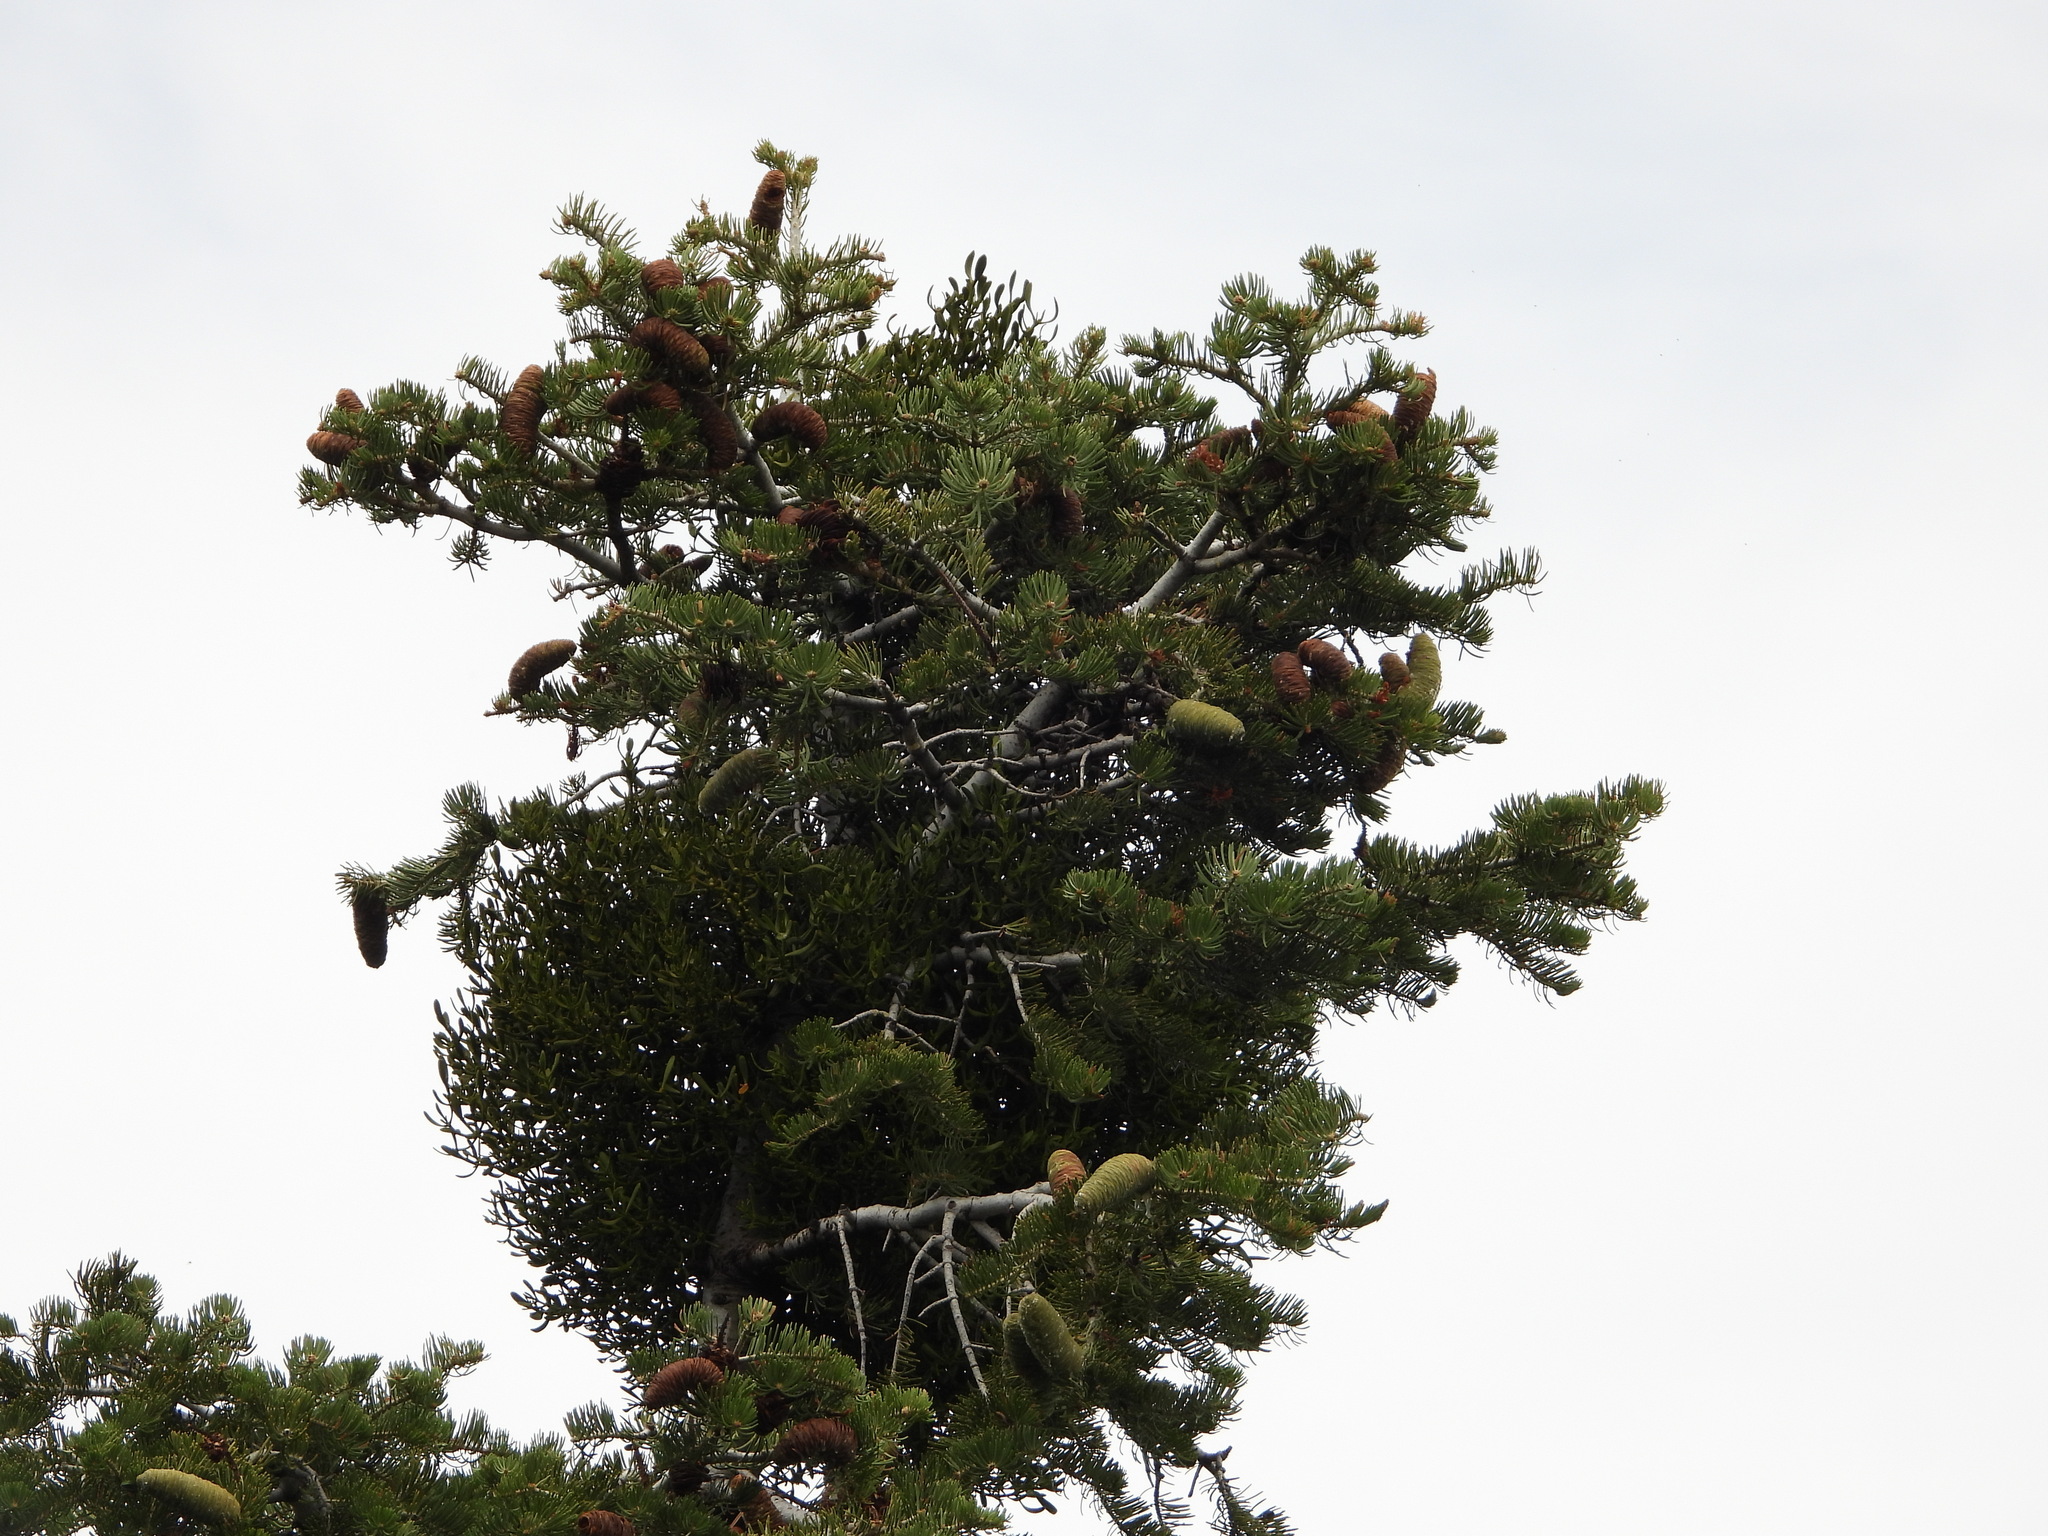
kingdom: Plantae
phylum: Tracheophyta
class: Magnoliopsida
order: Santalales
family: Viscaceae
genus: Phoradendron
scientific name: Phoradendron pauciflorum
